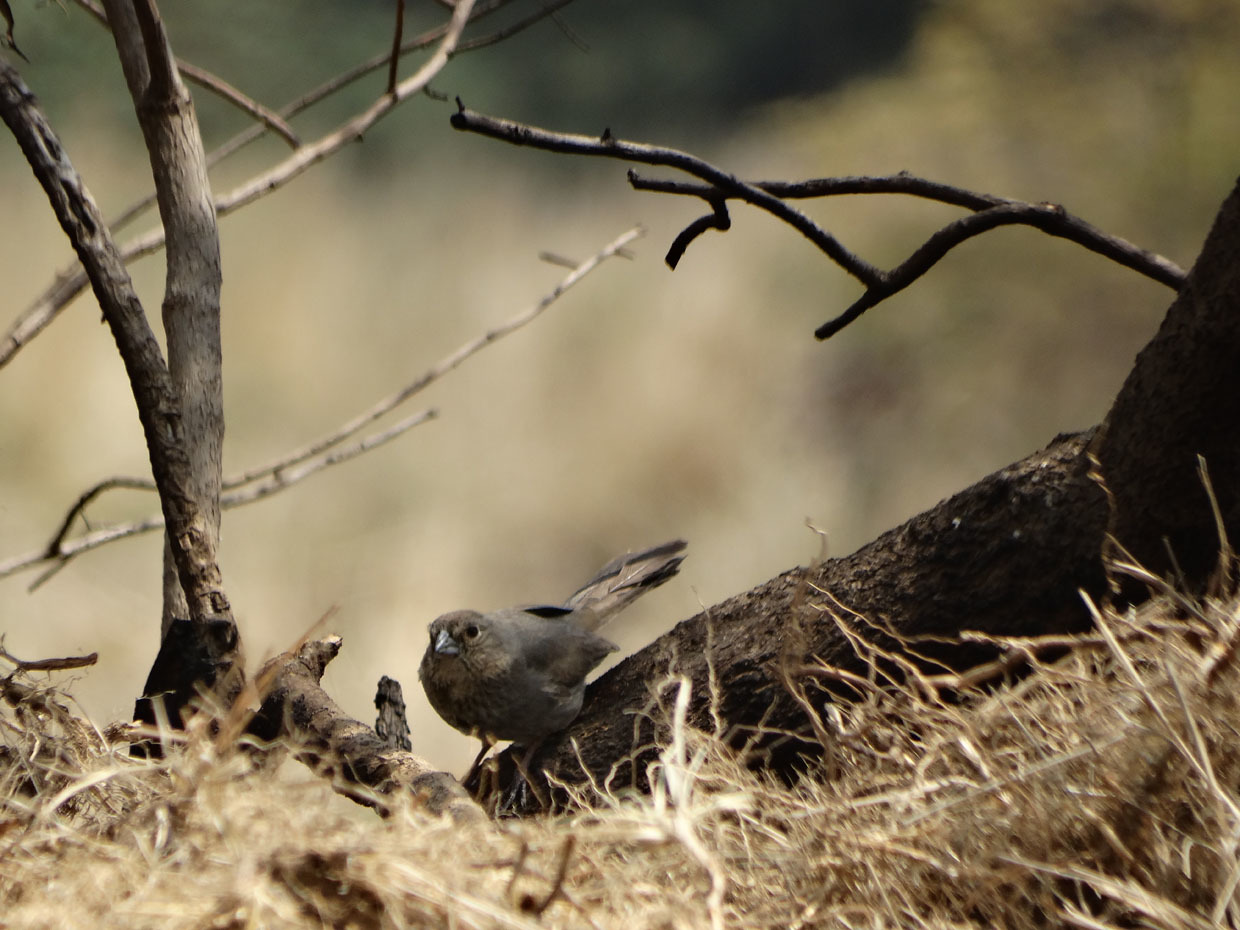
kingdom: Animalia
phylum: Chordata
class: Aves
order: Passeriformes
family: Passerellidae
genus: Melozone
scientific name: Melozone fusca
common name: Canyon towhee
